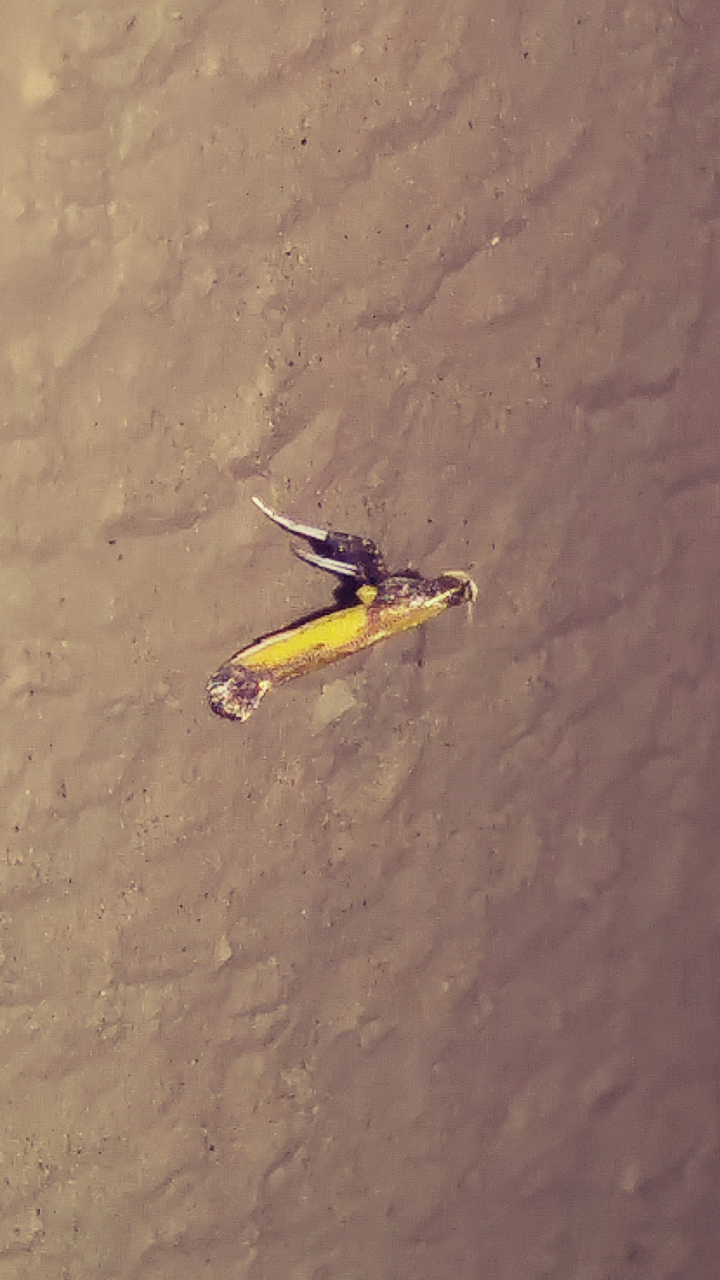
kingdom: Animalia
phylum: Arthropoda
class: Insecta
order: Lepidoptera
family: Gracillariidae
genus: Caloptilia
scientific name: Caloptilia azaleella
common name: Azalea leafminer
